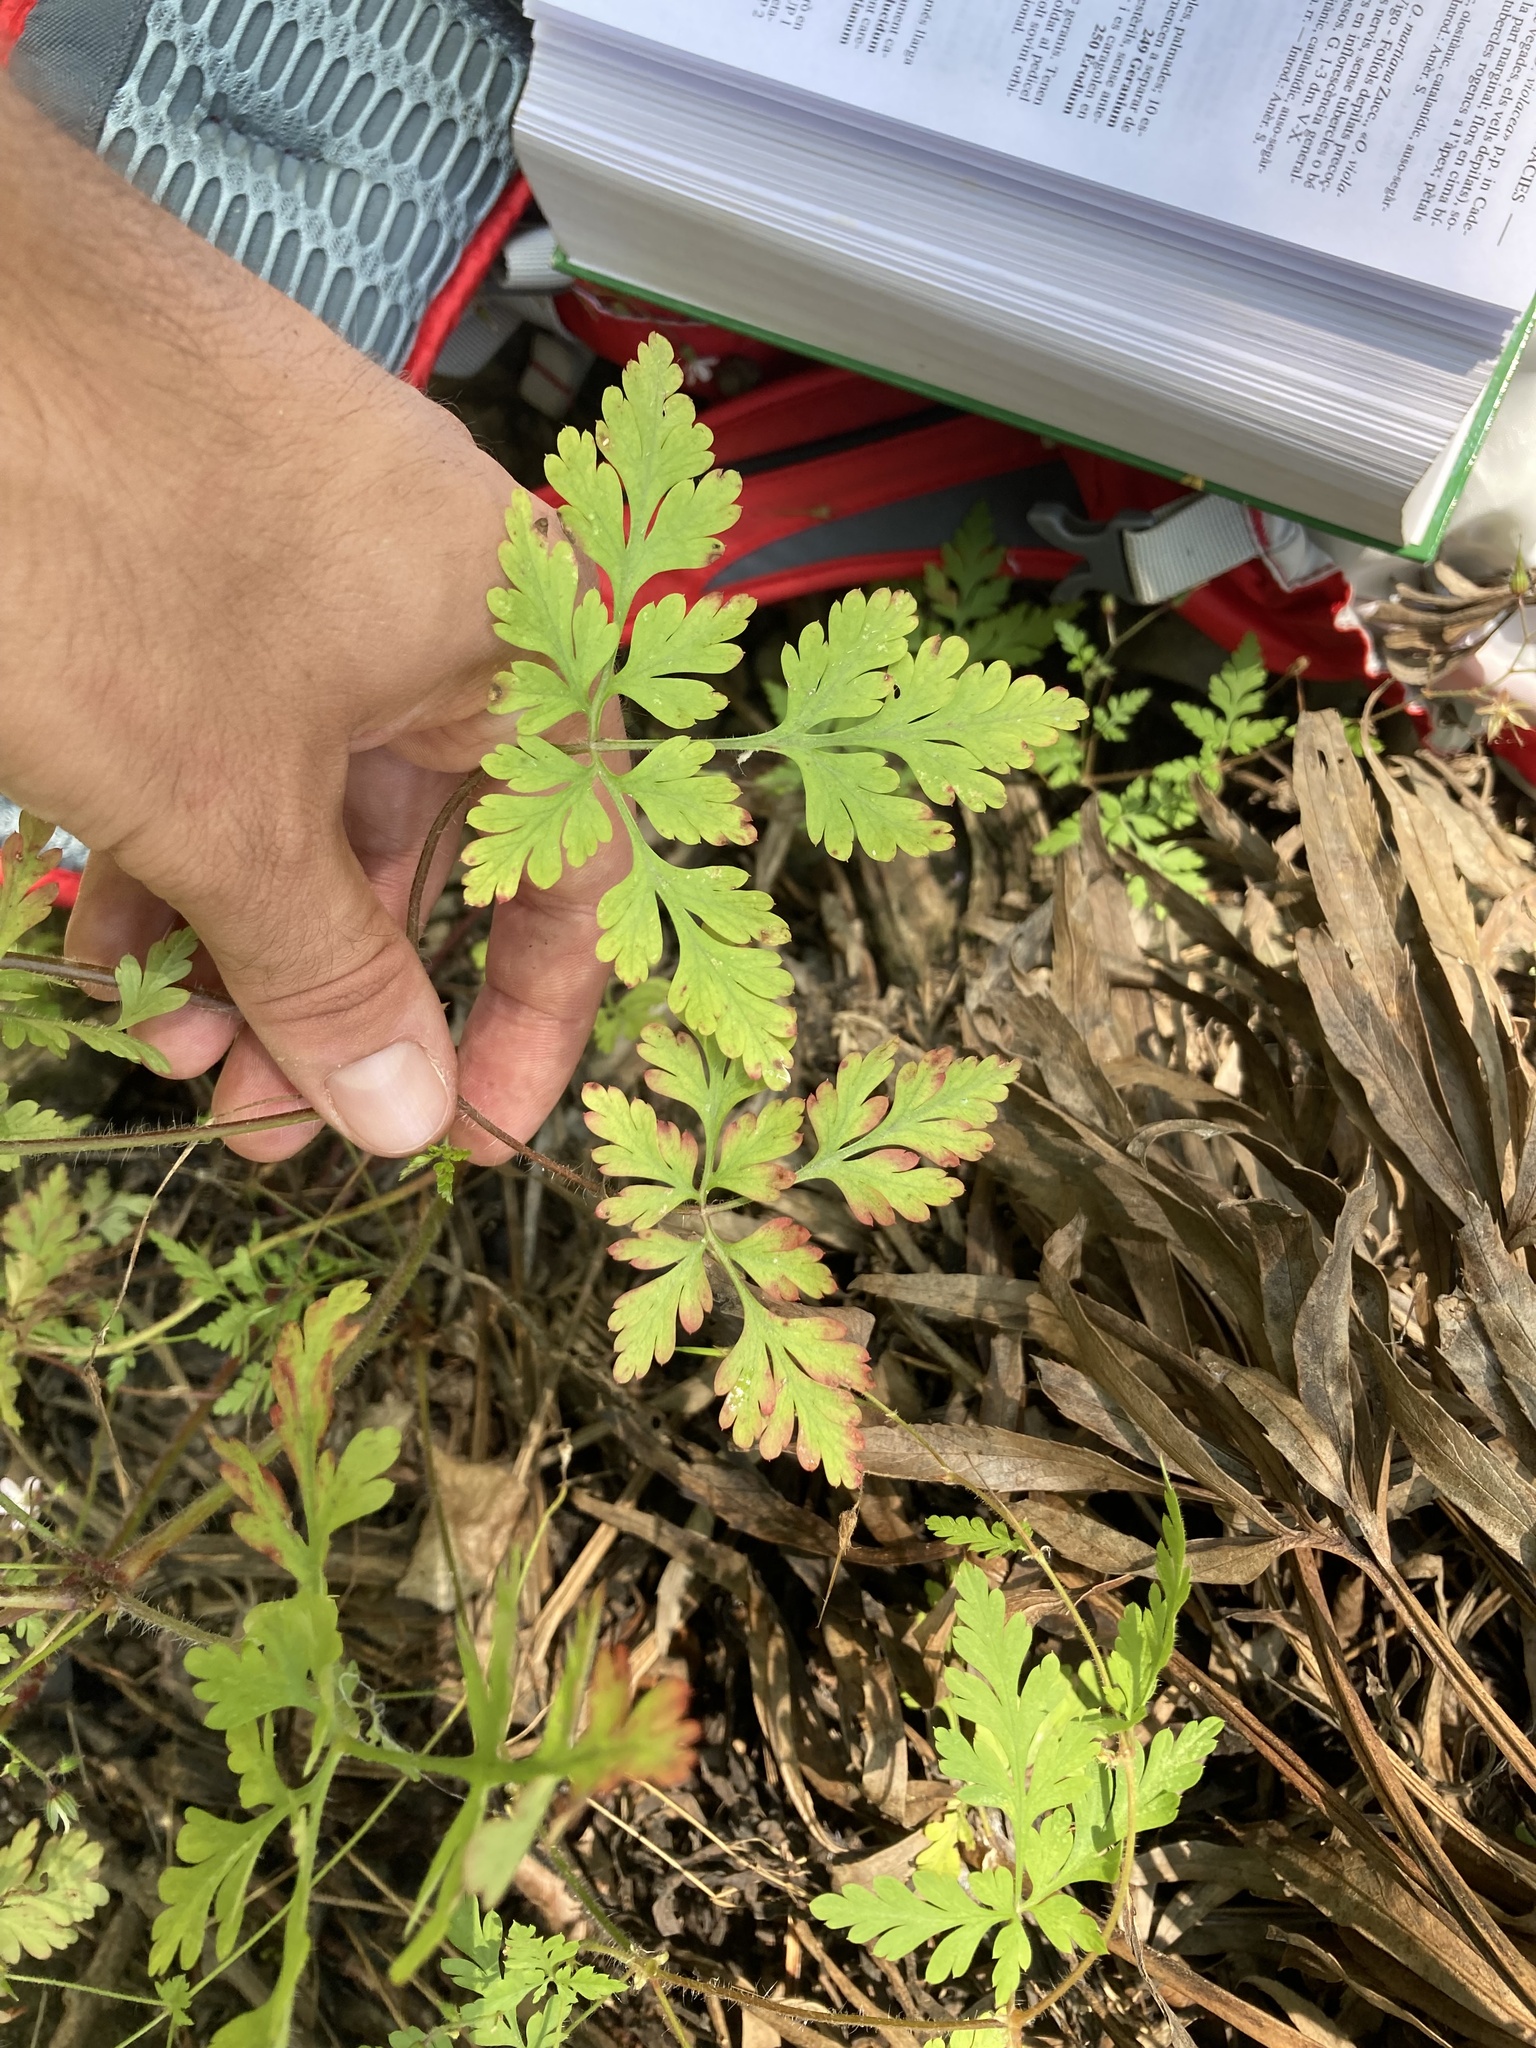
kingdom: Plantae
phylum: Tracheophyta
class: Magnoliopsida
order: Geraniales
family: Geraniaceae
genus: Geranium
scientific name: Geranium robertianum
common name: Herb-robert
